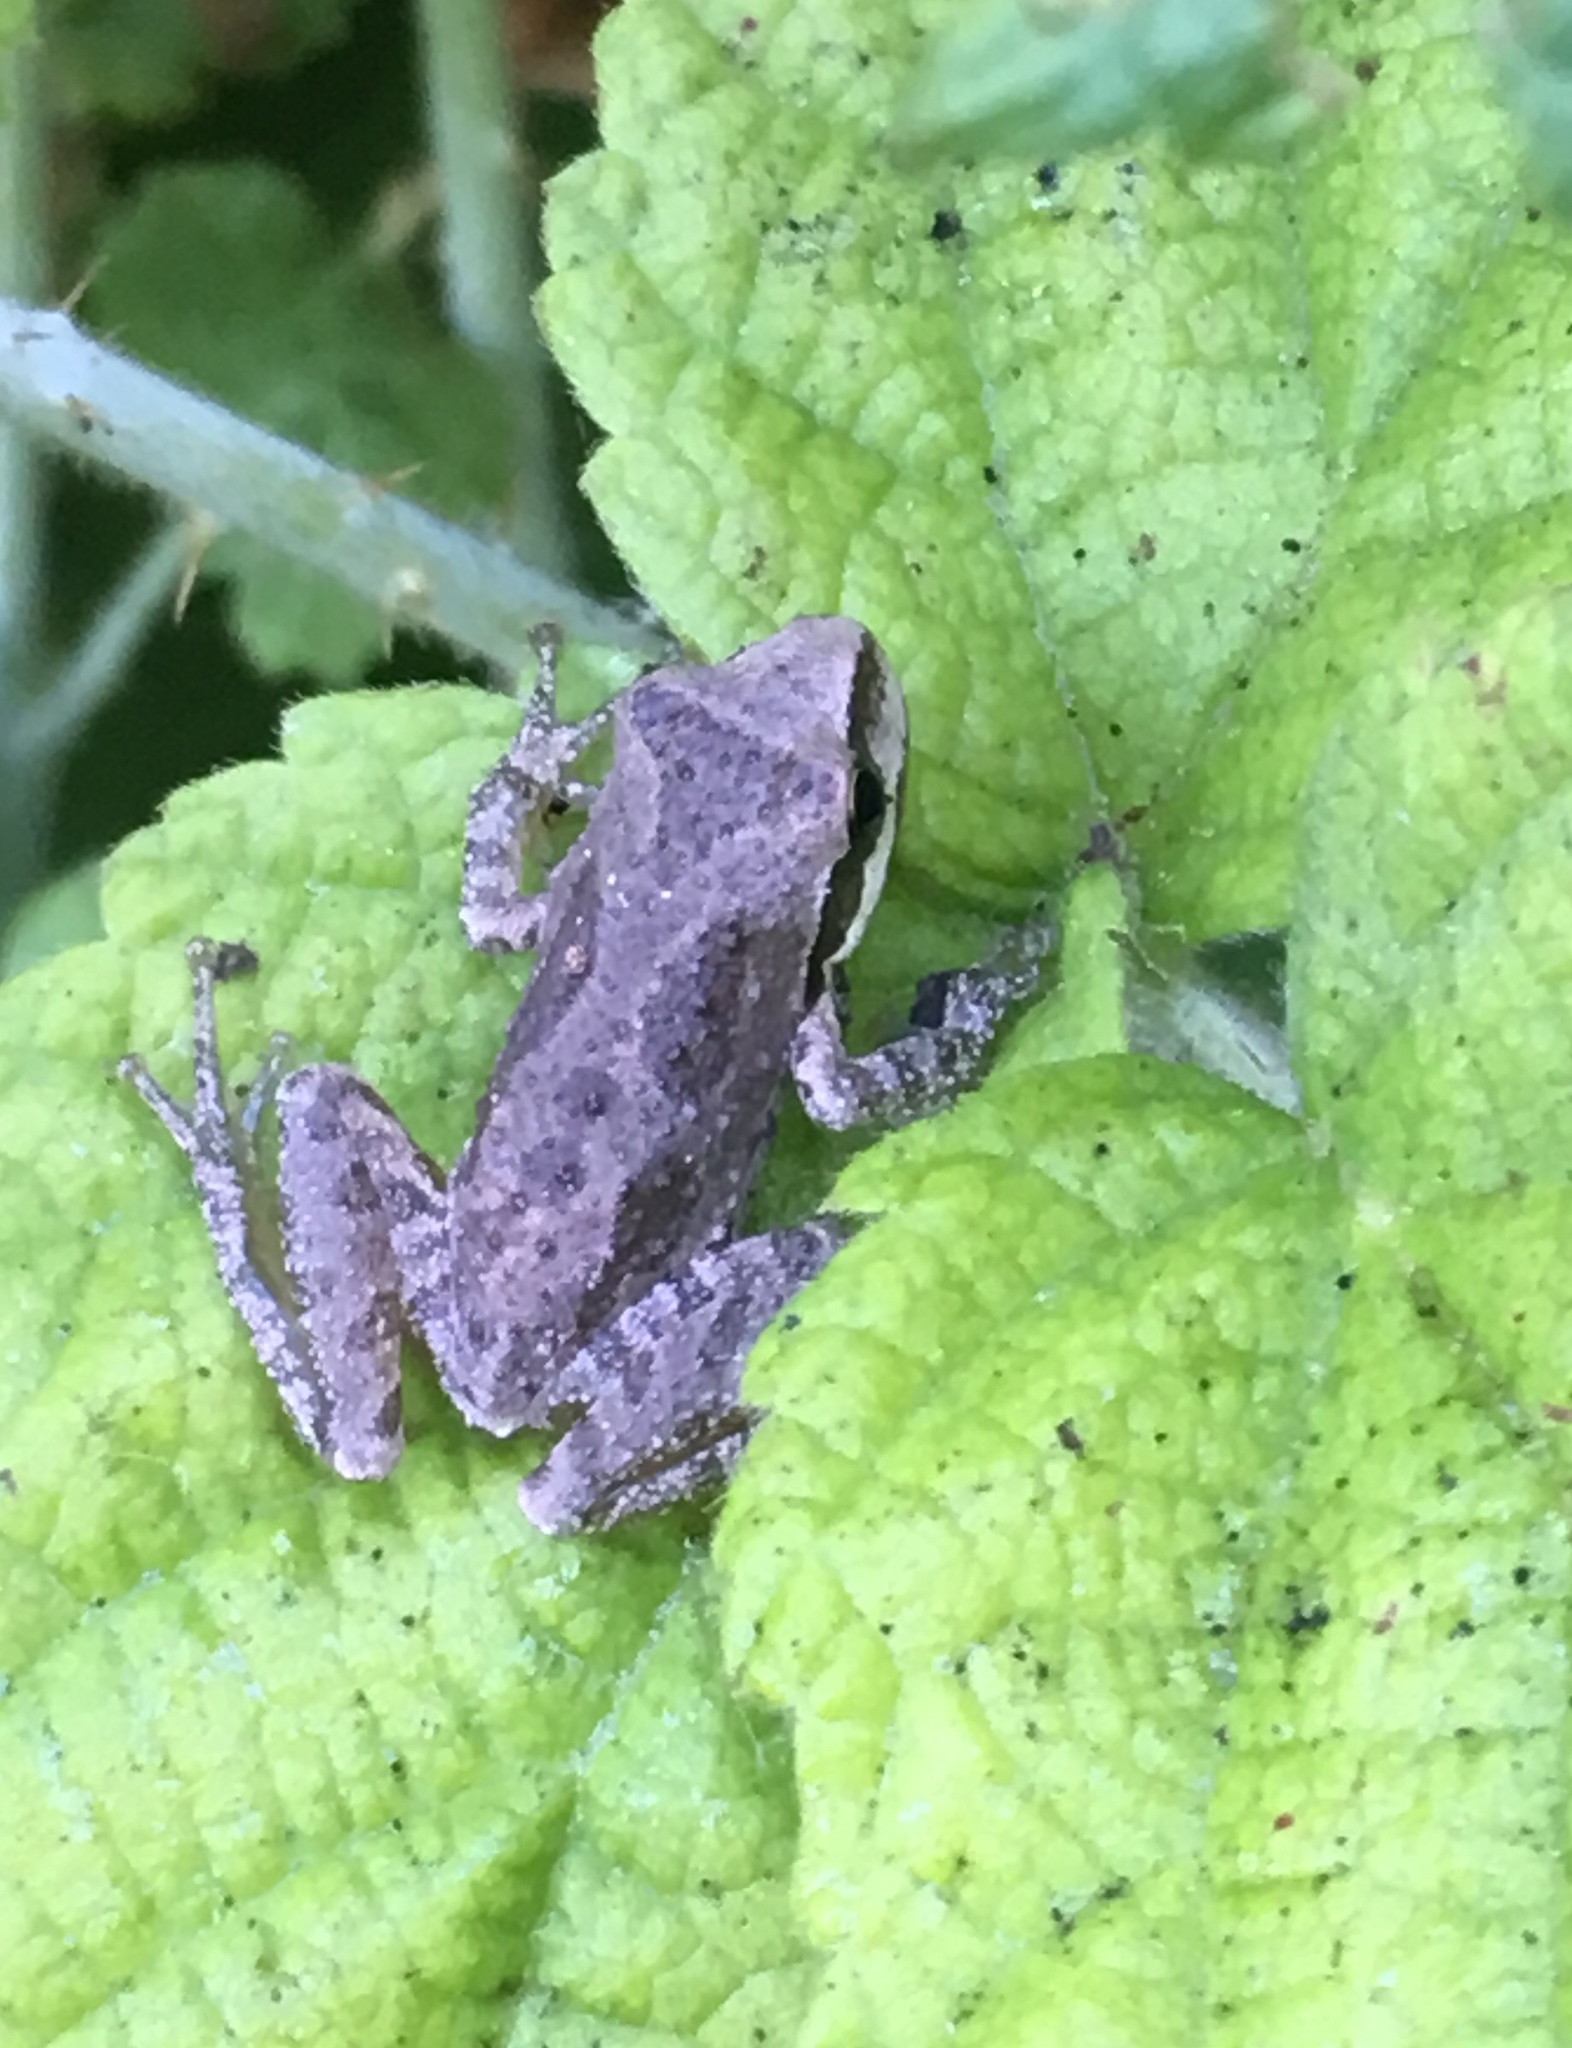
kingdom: Animalia
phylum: Chordata
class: Amphibia
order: Anura
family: Hylidae
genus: Pseudacris
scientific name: Pseudacris regilla
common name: Pacific chorus frog
